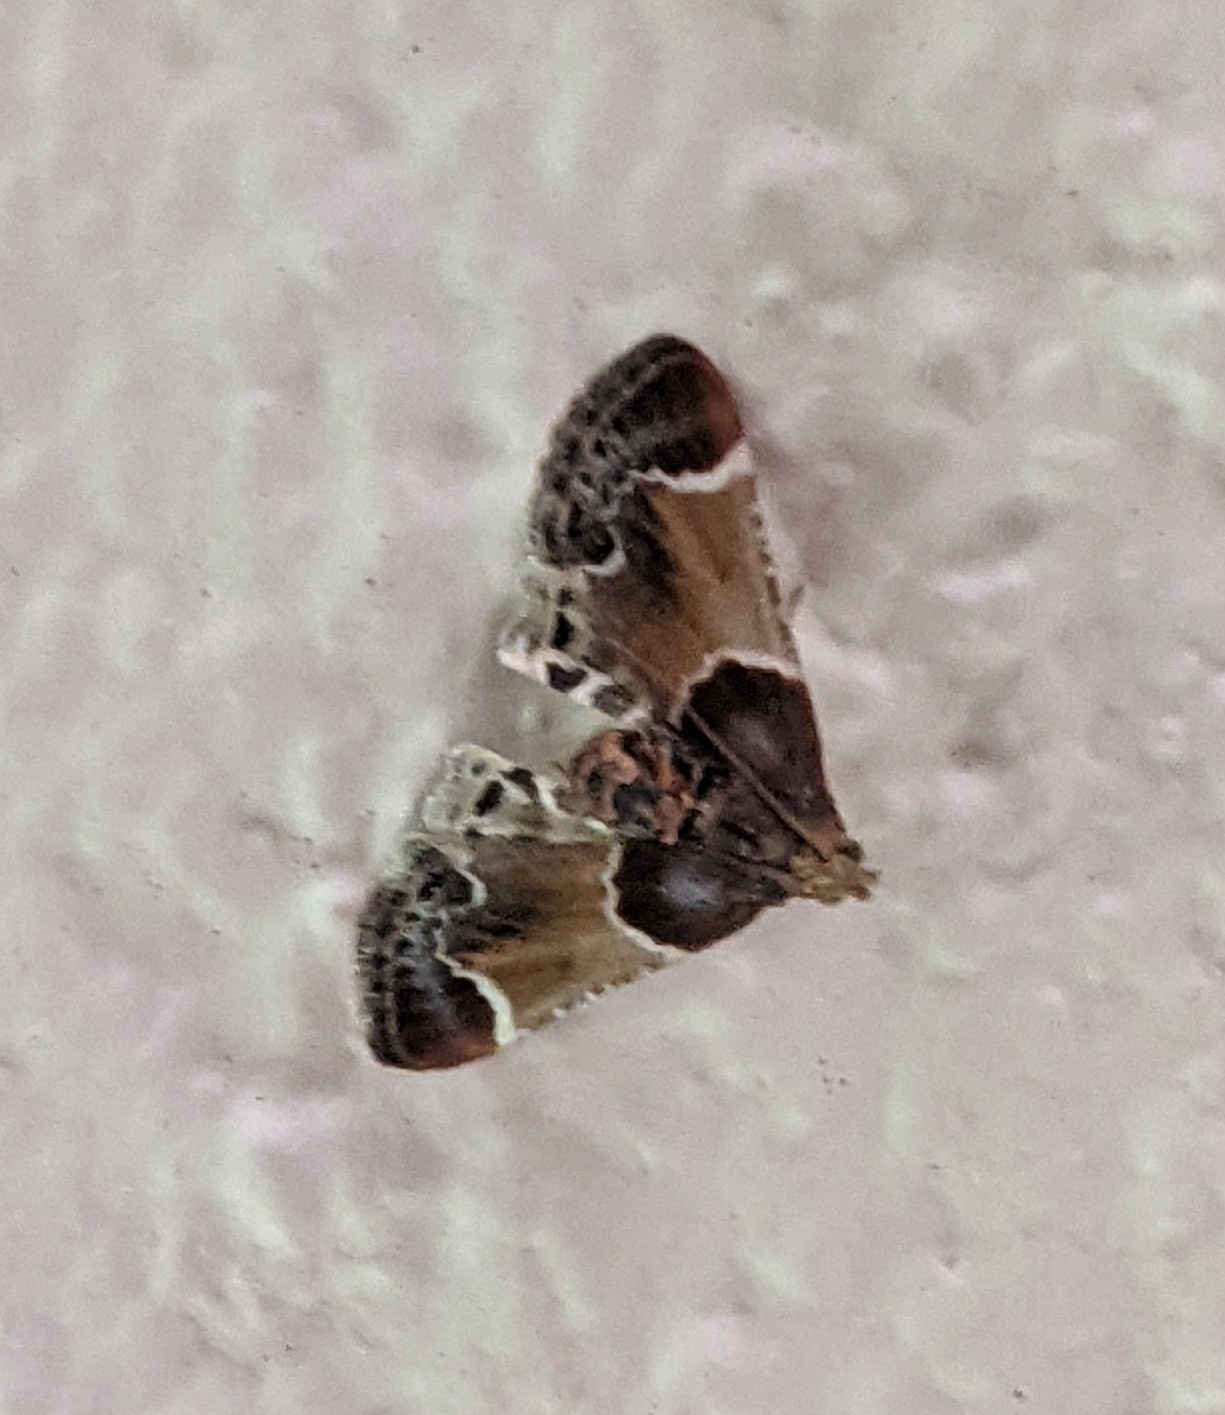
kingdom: Animalia
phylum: Arthropoda
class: Insecta
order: Lepidoptera
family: Pyralidae
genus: Pyralis
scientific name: Pyralis farinalis
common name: Meal moth
